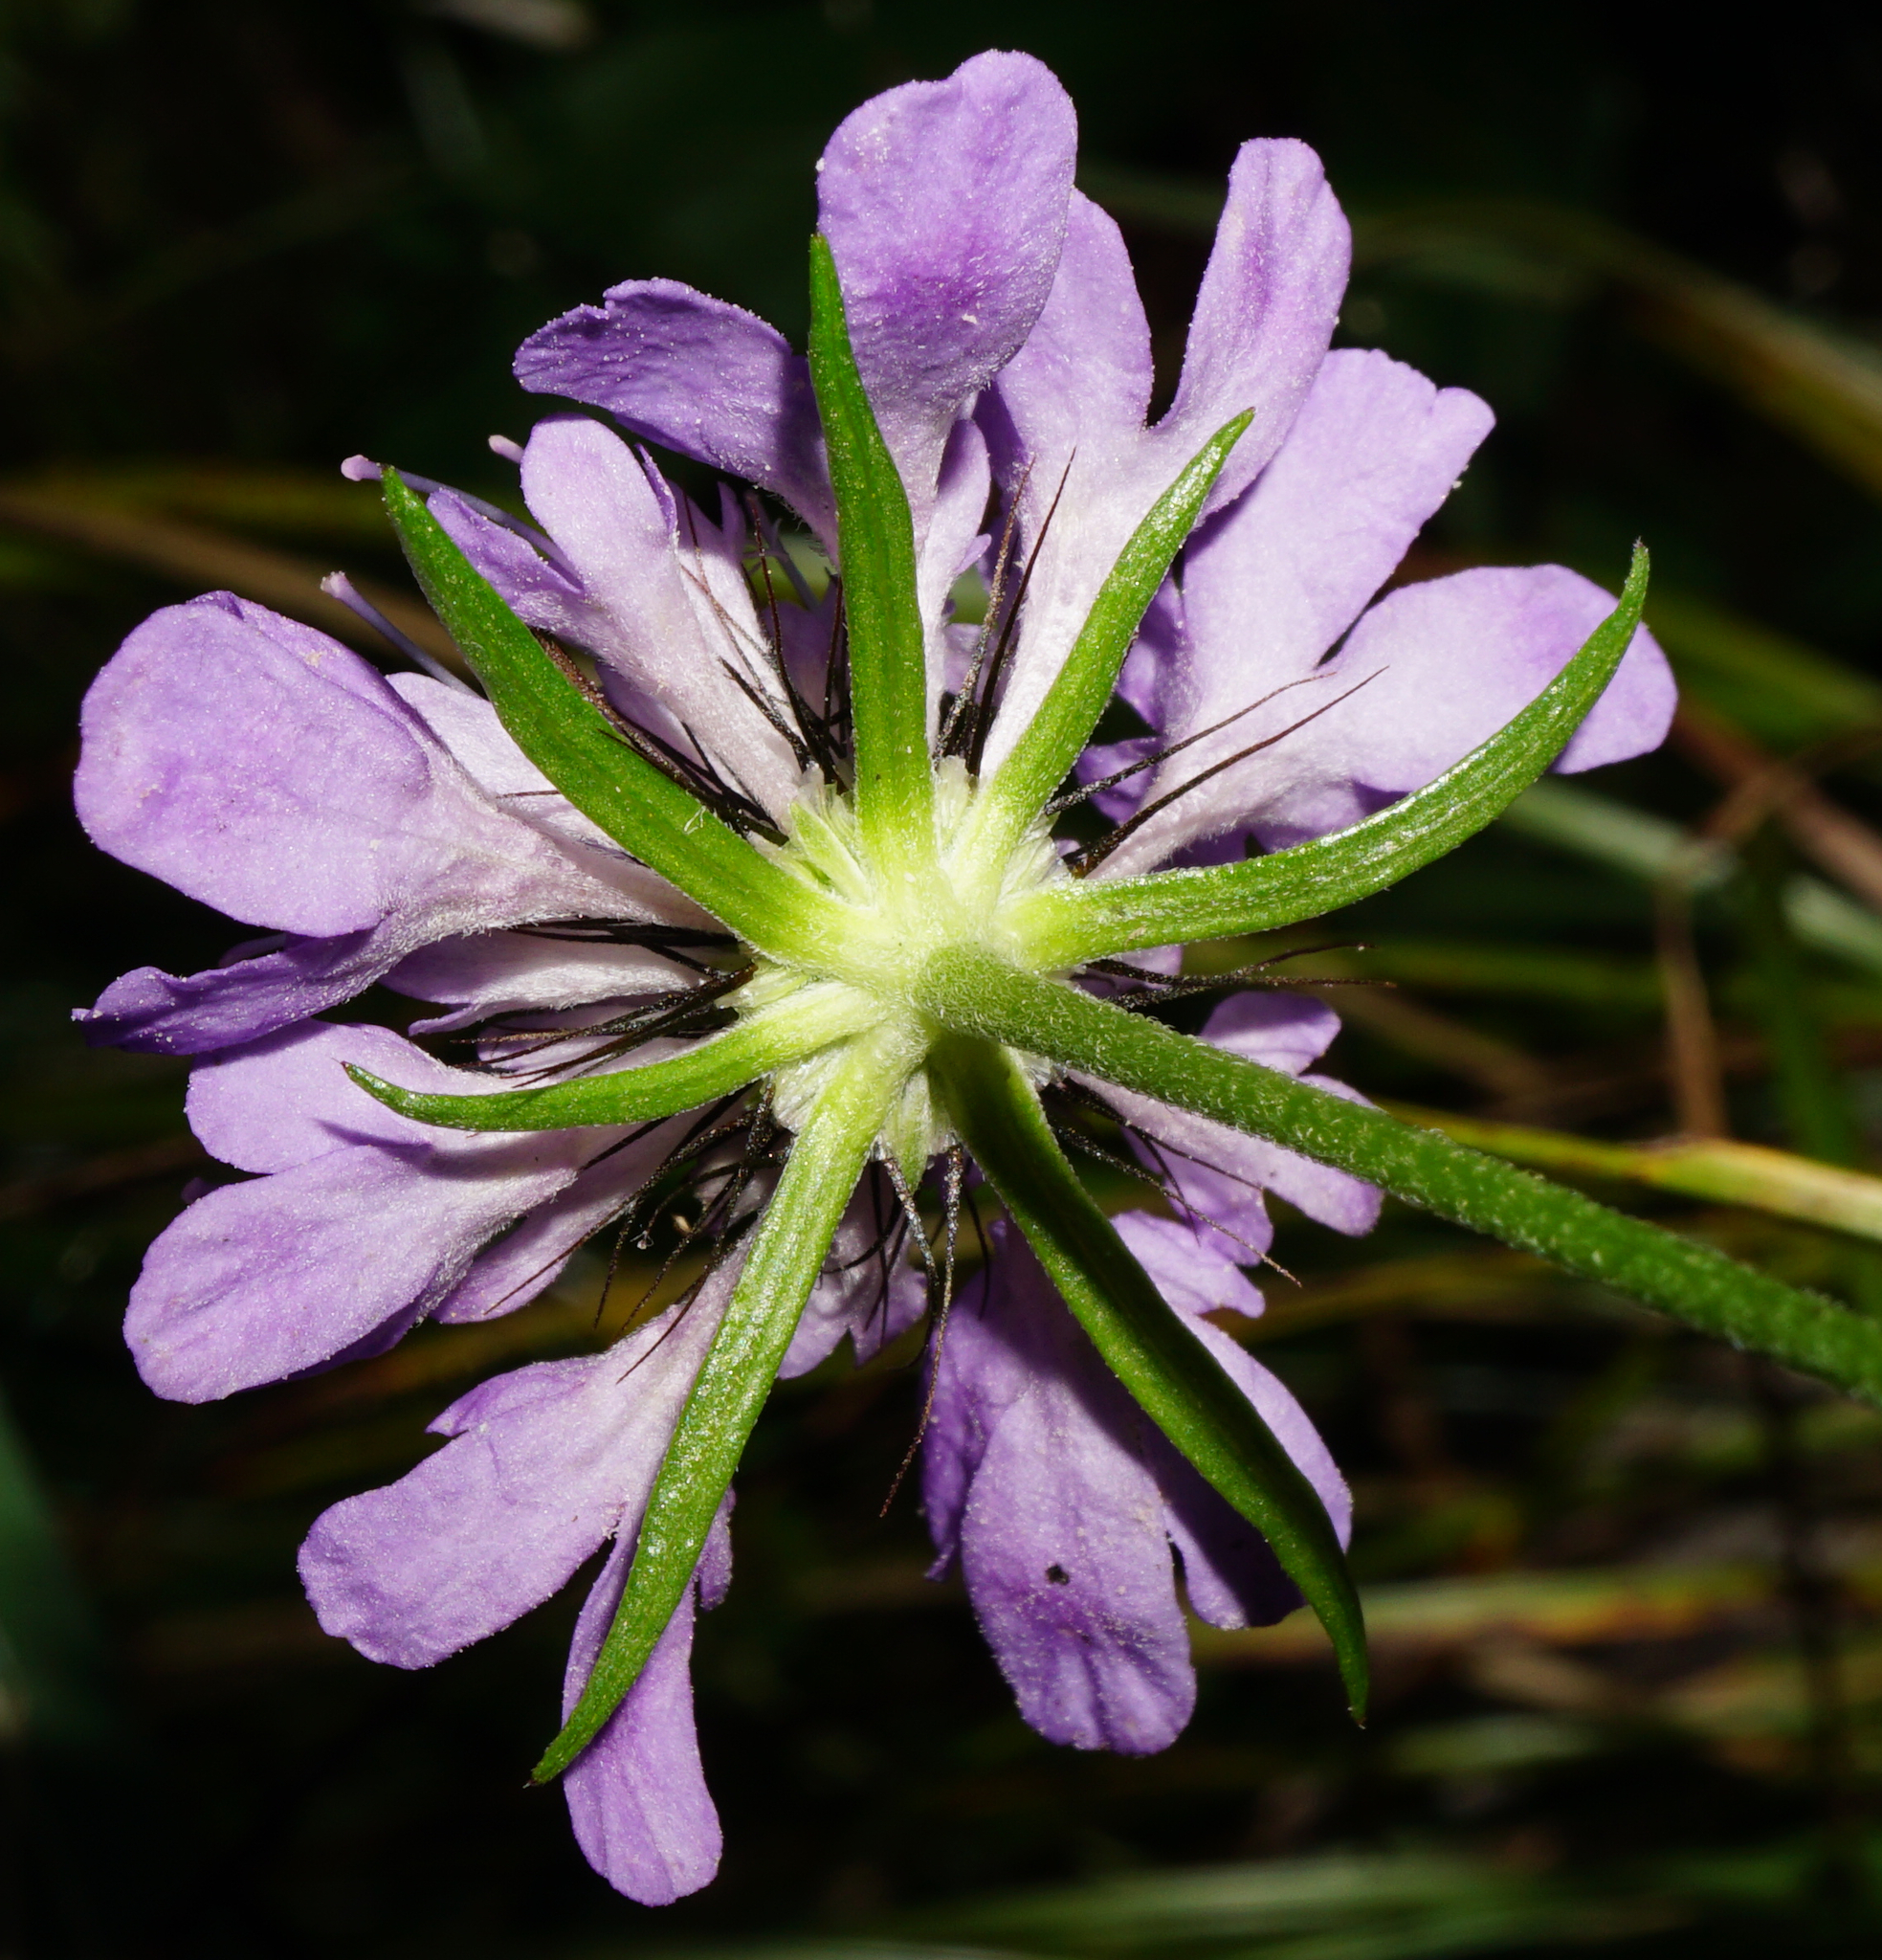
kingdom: Plantae
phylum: Tracheophyta
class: Magnoliopsida
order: Dipsacales
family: Caprifoliaceae
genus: Scabiosa
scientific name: Scabiosa lucida
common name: Shining scabious
